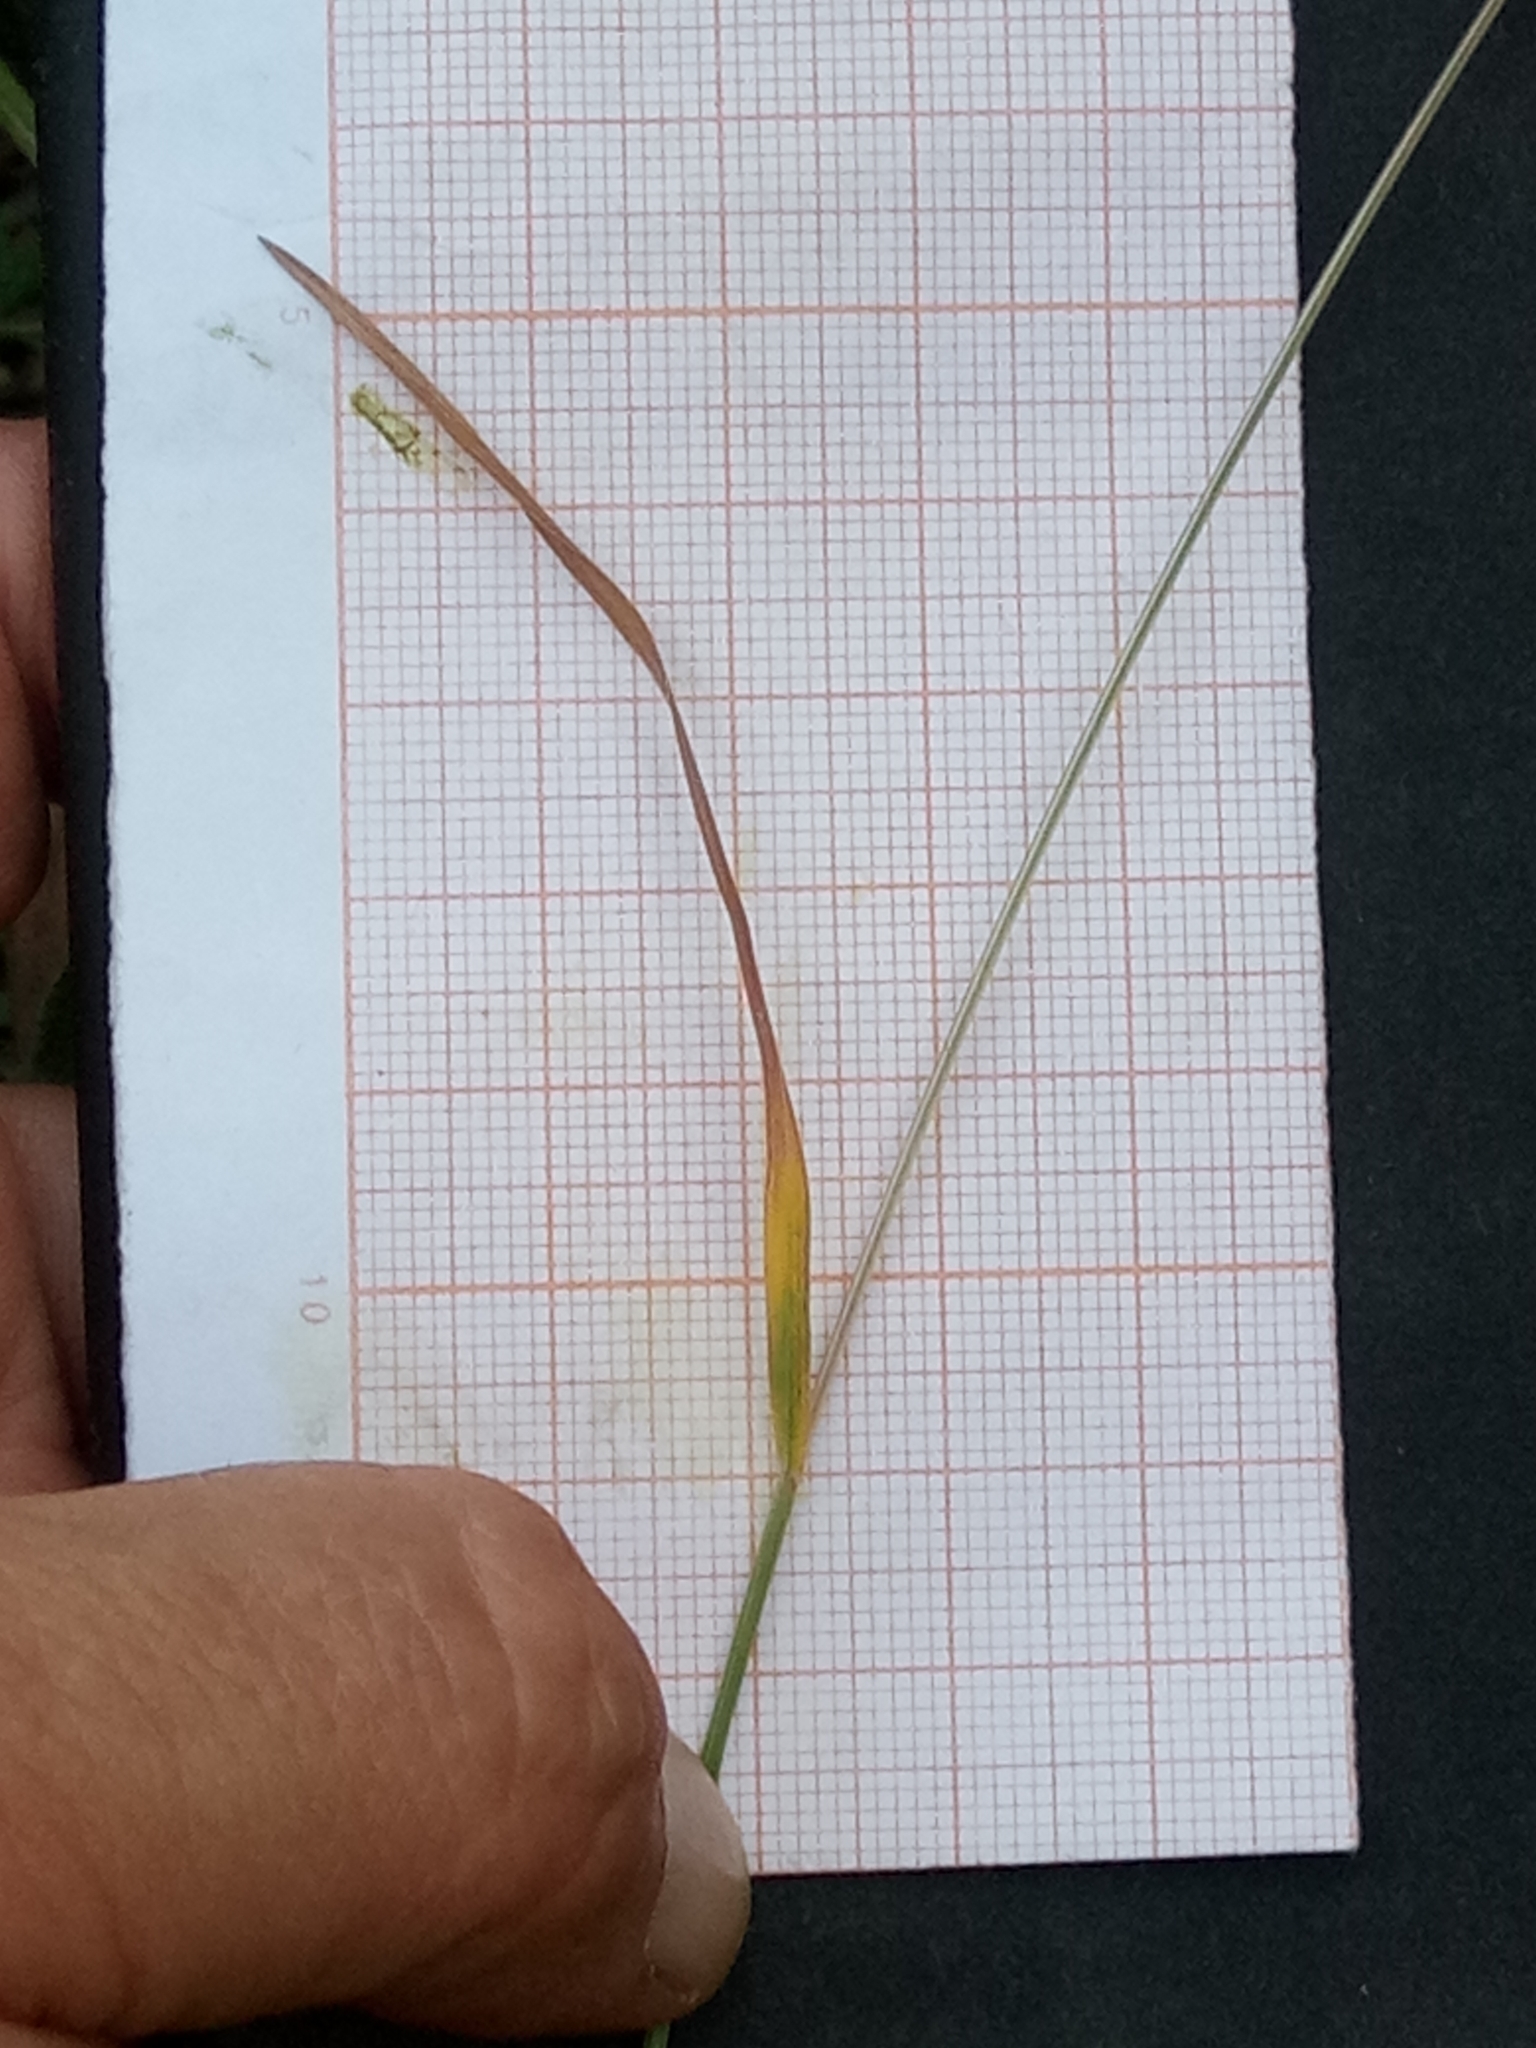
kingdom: Plantae
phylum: Tracheophyta
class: Liliopsida
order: Poales
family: Poaceae
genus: Bromus
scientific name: Bromus hordeaceus
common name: Soft brome
